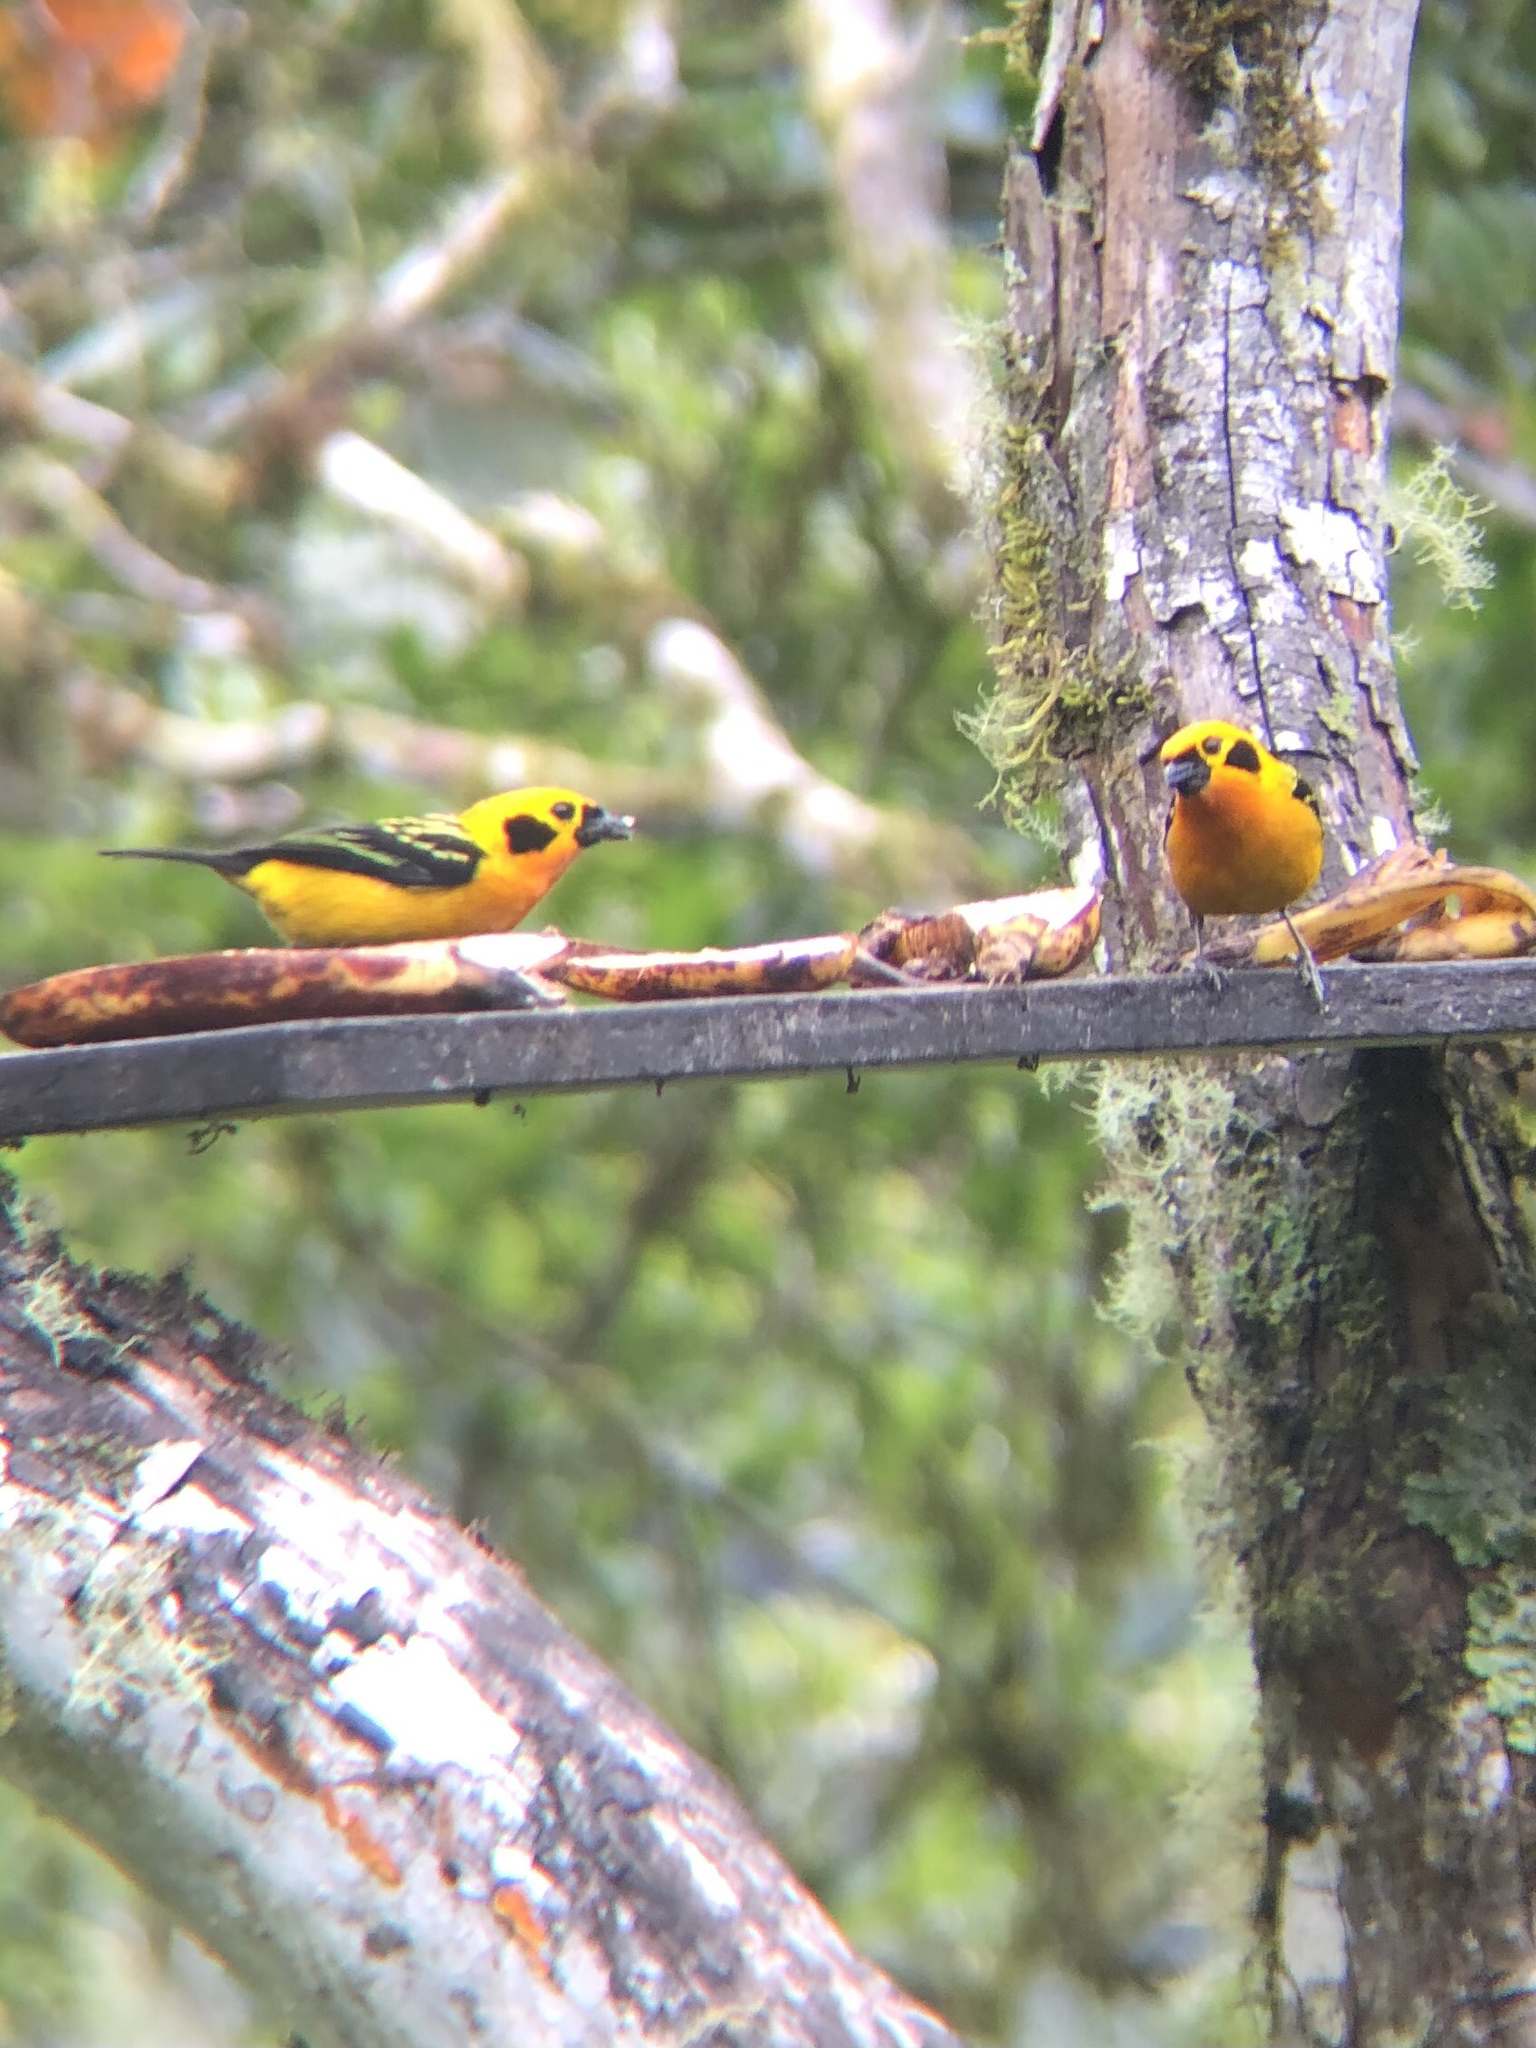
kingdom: Animalia
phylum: Chordata
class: Aves
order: Passeriformes
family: Thraupidae
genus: Tangara
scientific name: Tangara arthus
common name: Golden tanager
